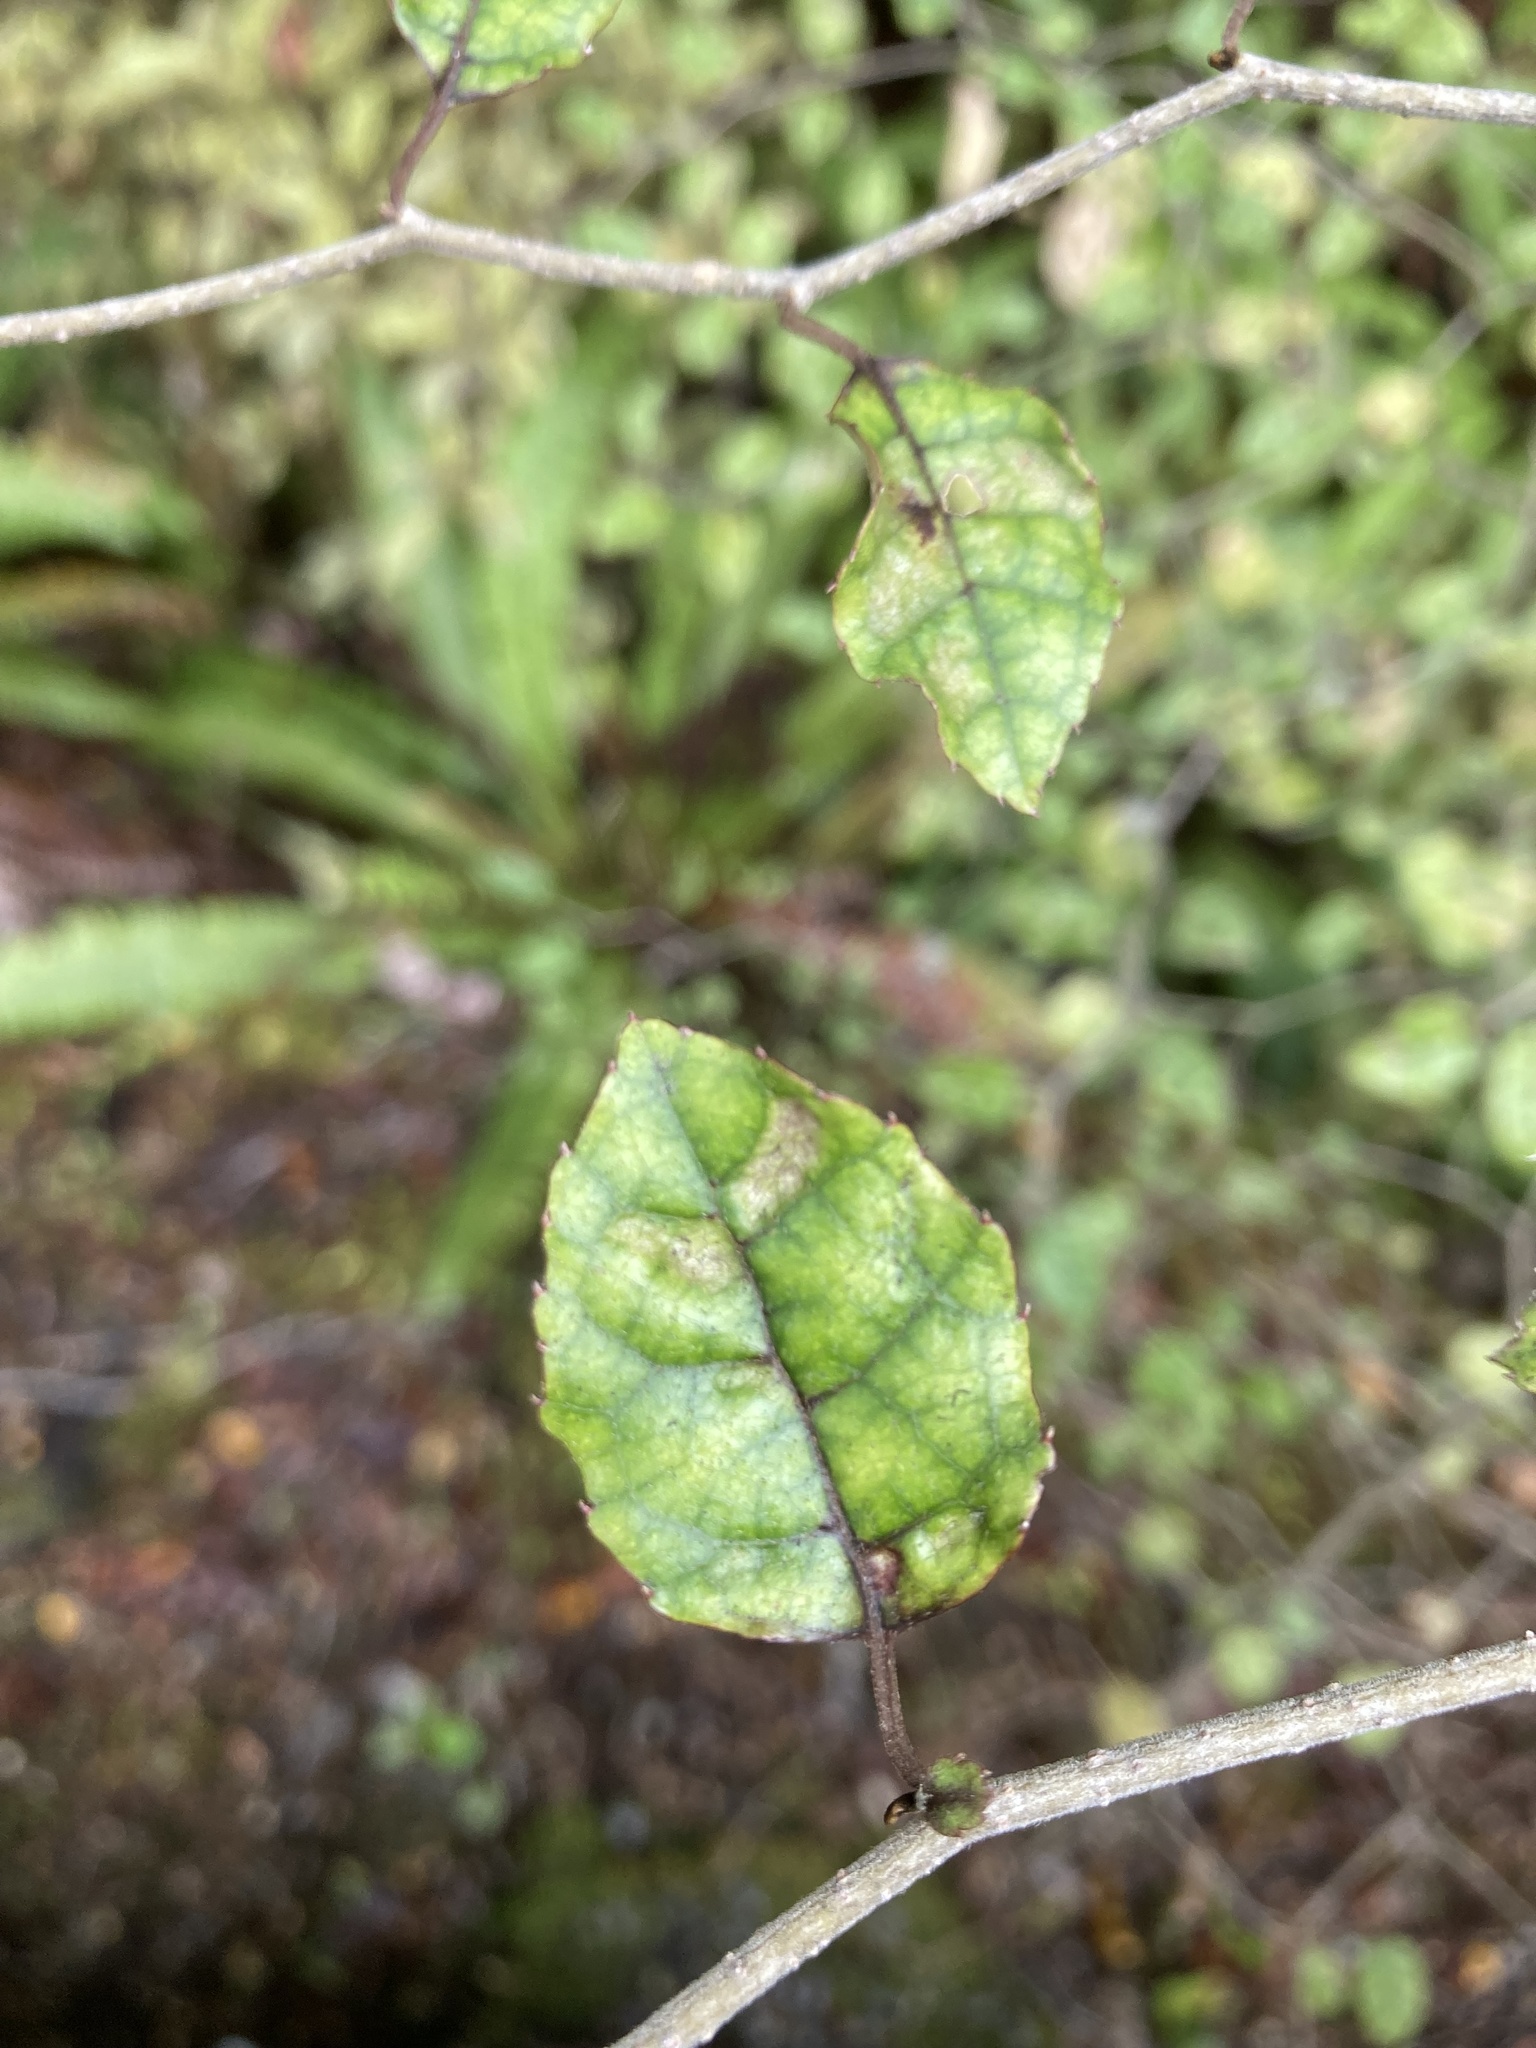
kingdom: Plantae
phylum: Tracheophyta
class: Magnoliopsida
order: Asterales
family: Rousseaceae
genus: Carpodetus
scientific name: Carpodetus serratus
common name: White mapau
